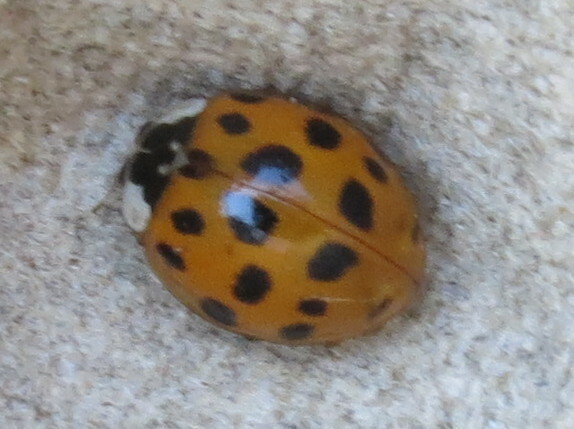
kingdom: Animalia
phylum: Arthropoda
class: Insecta
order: Coleoptera
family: Coccinellidae
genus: Harmonia
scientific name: Harmonia axyridis
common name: Harlequin ladybird
